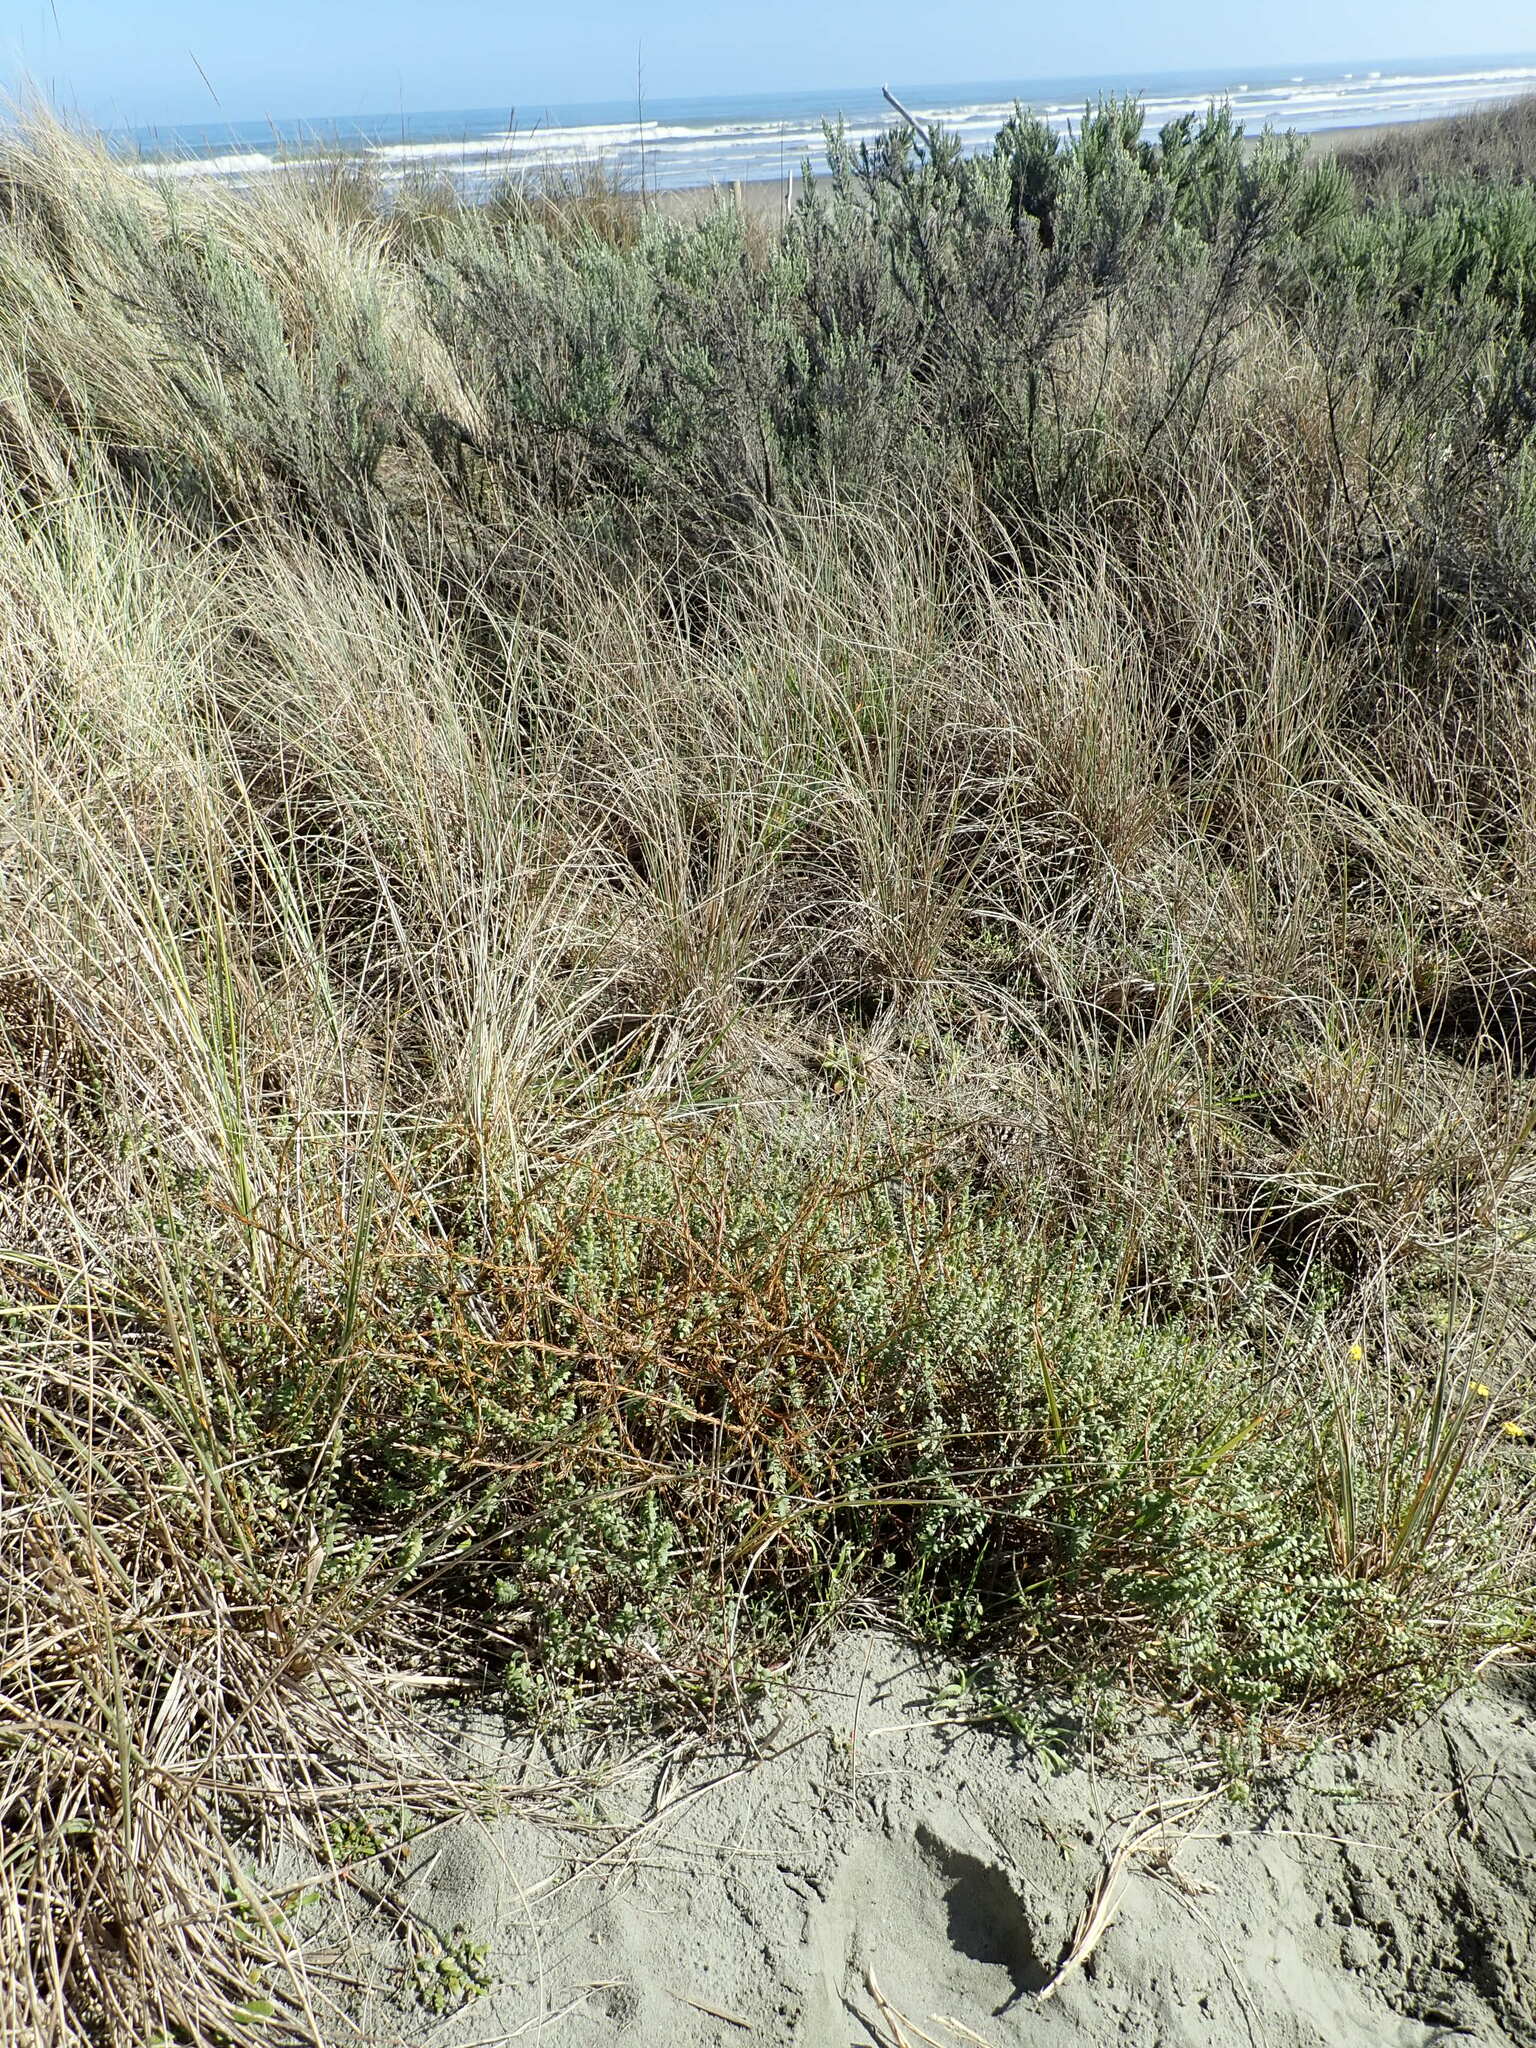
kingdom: Plantae
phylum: Tracheophyta
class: Magnoliopsida
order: Malvales
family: Thymelaeaceae
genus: Pimelea
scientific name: Pimelea villosa
